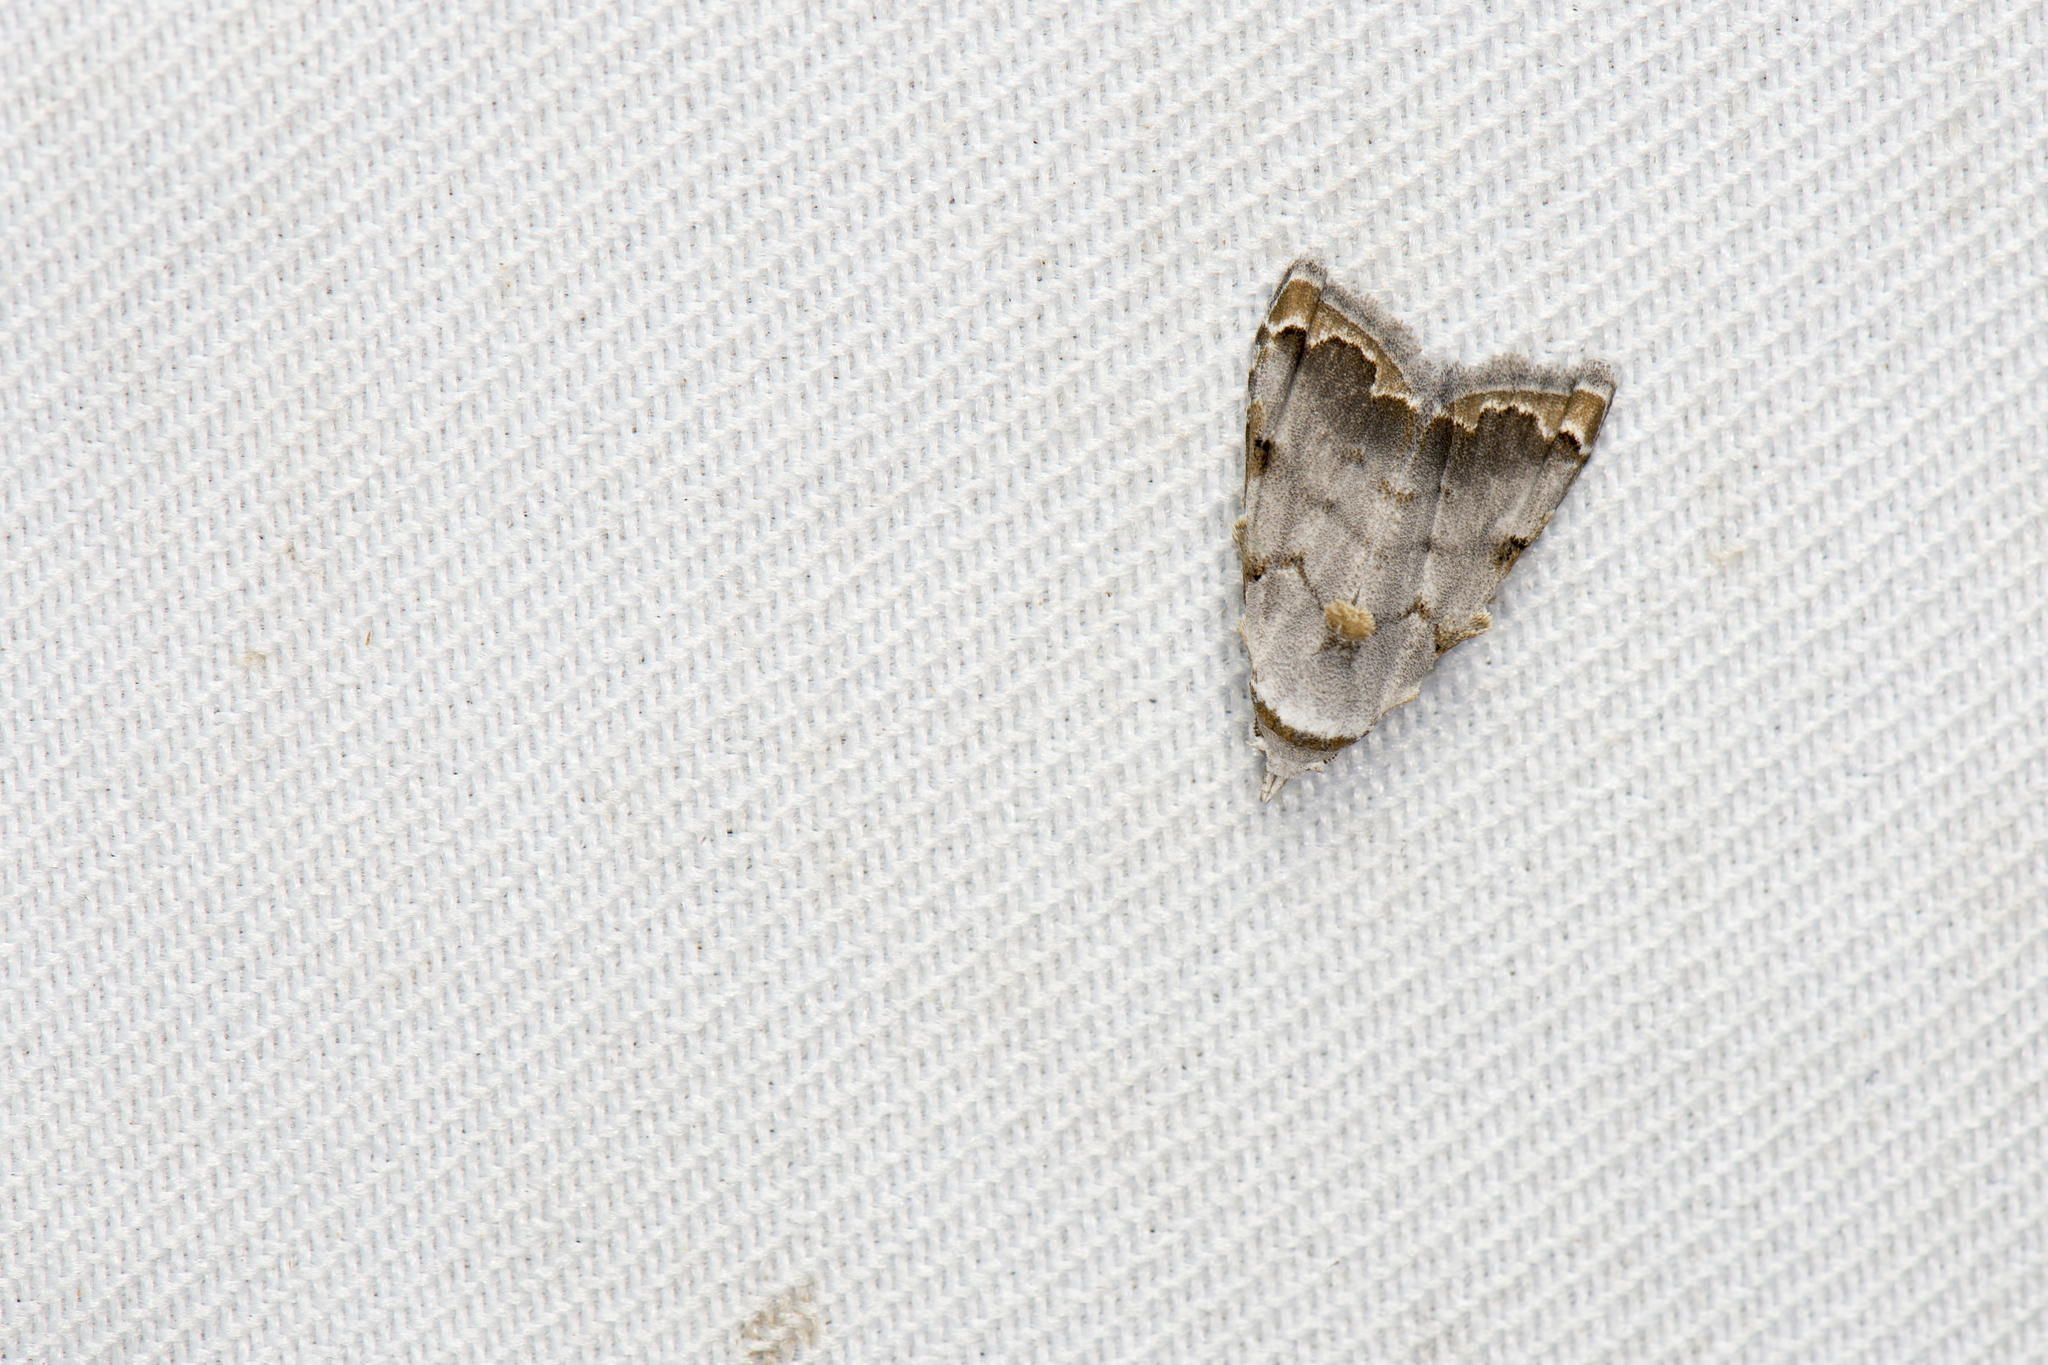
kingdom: Animalia
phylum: Arthropoda
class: Insecta
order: Lepidoptera
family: Nolidae
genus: Nola
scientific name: Nola marginata
